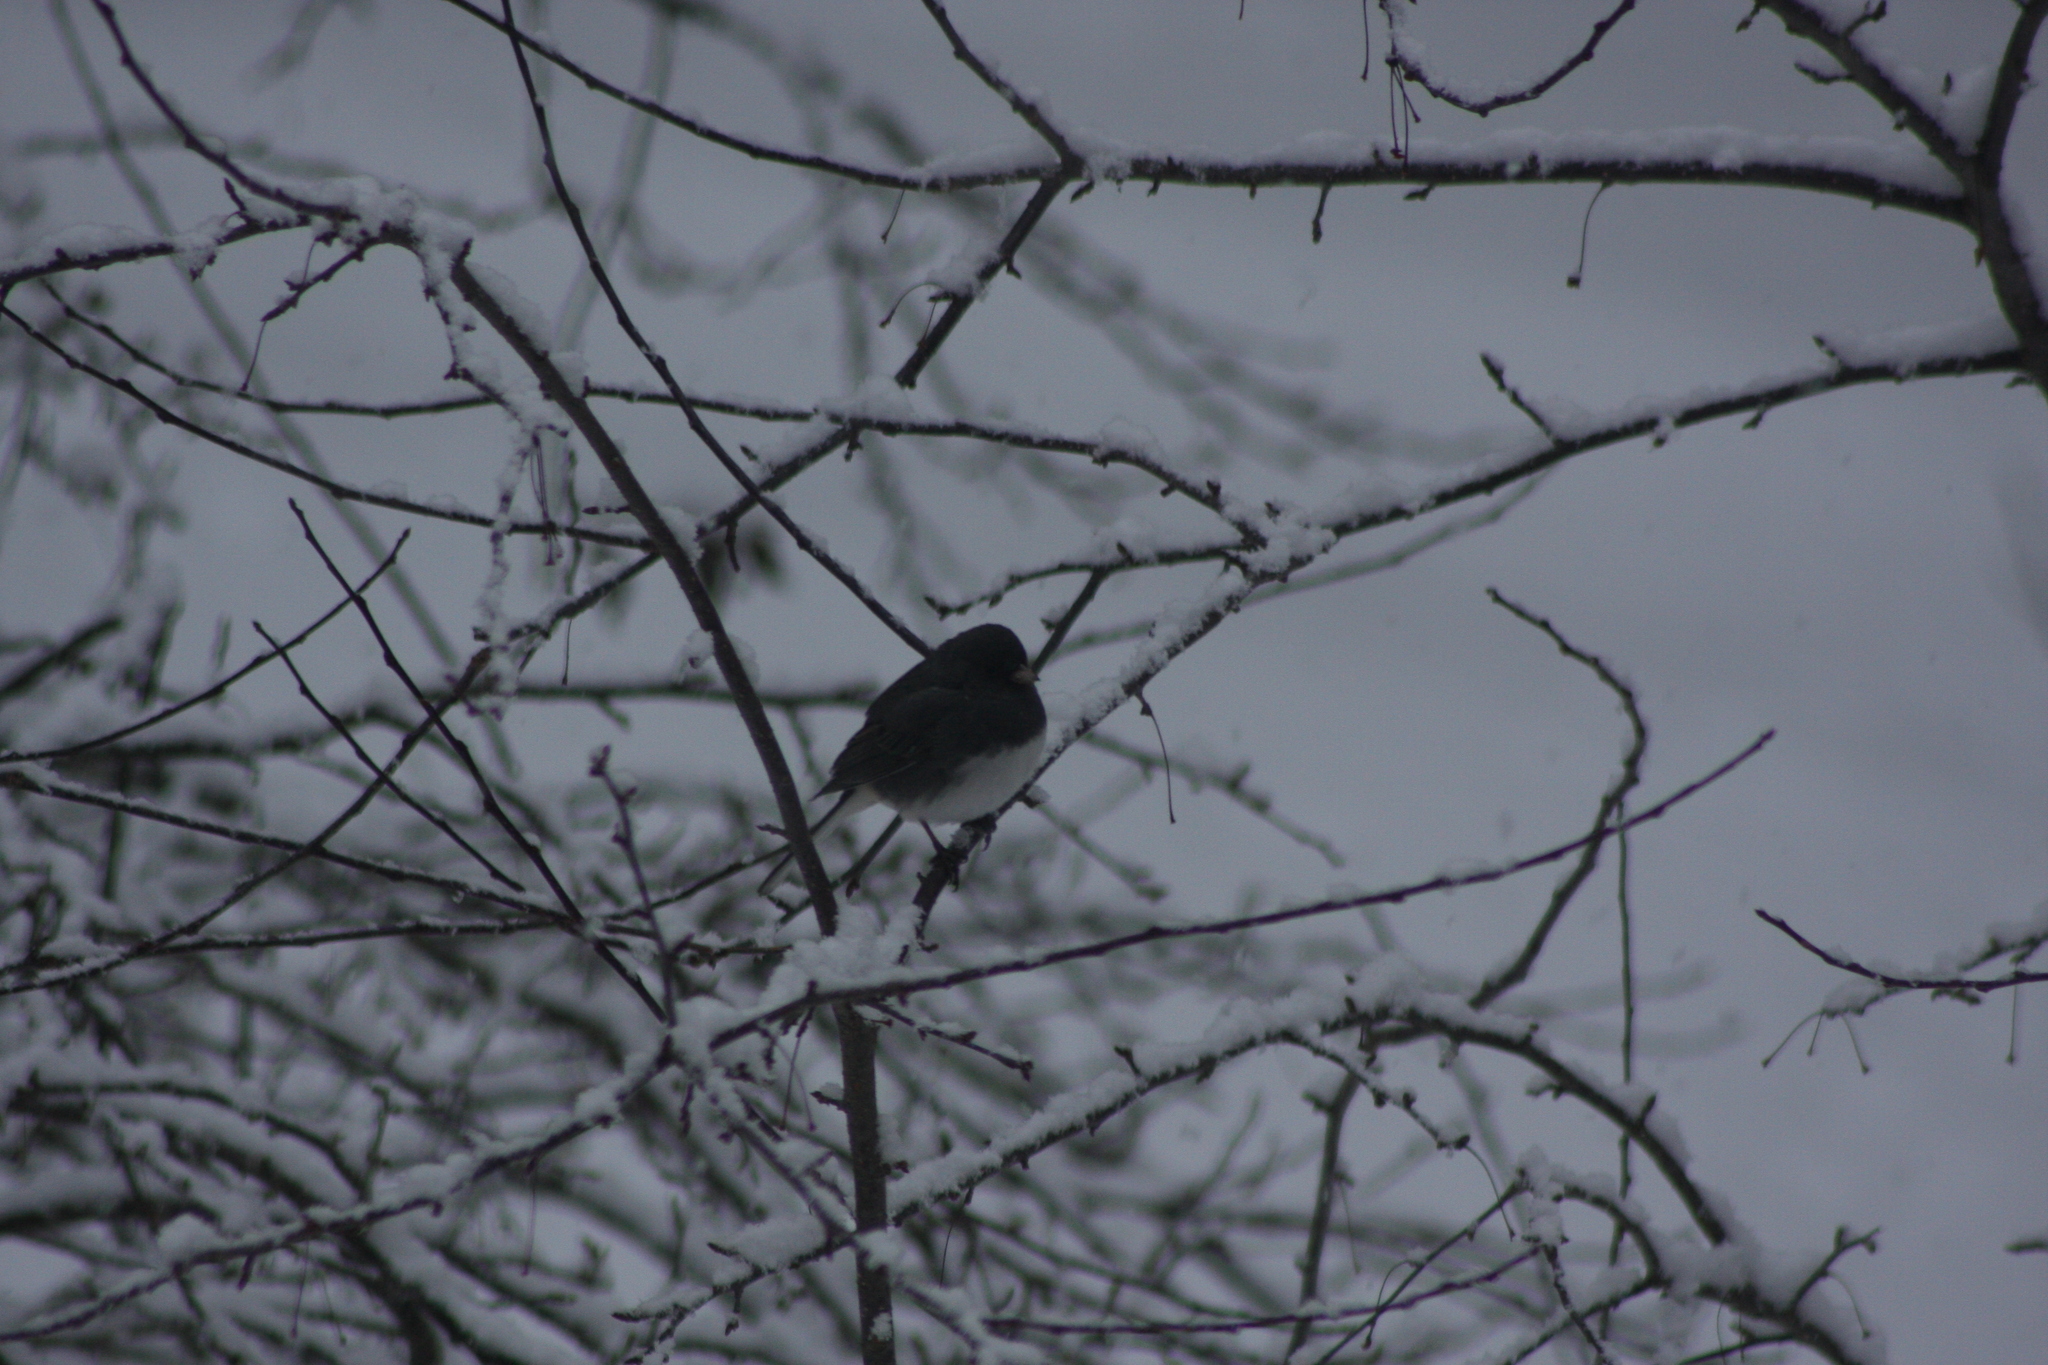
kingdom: Animalia
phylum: Chordata
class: Aves
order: Passeriformes
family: Passerellidae
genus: Junco
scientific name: Junco hyemalis
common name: Dark-eyed junco
